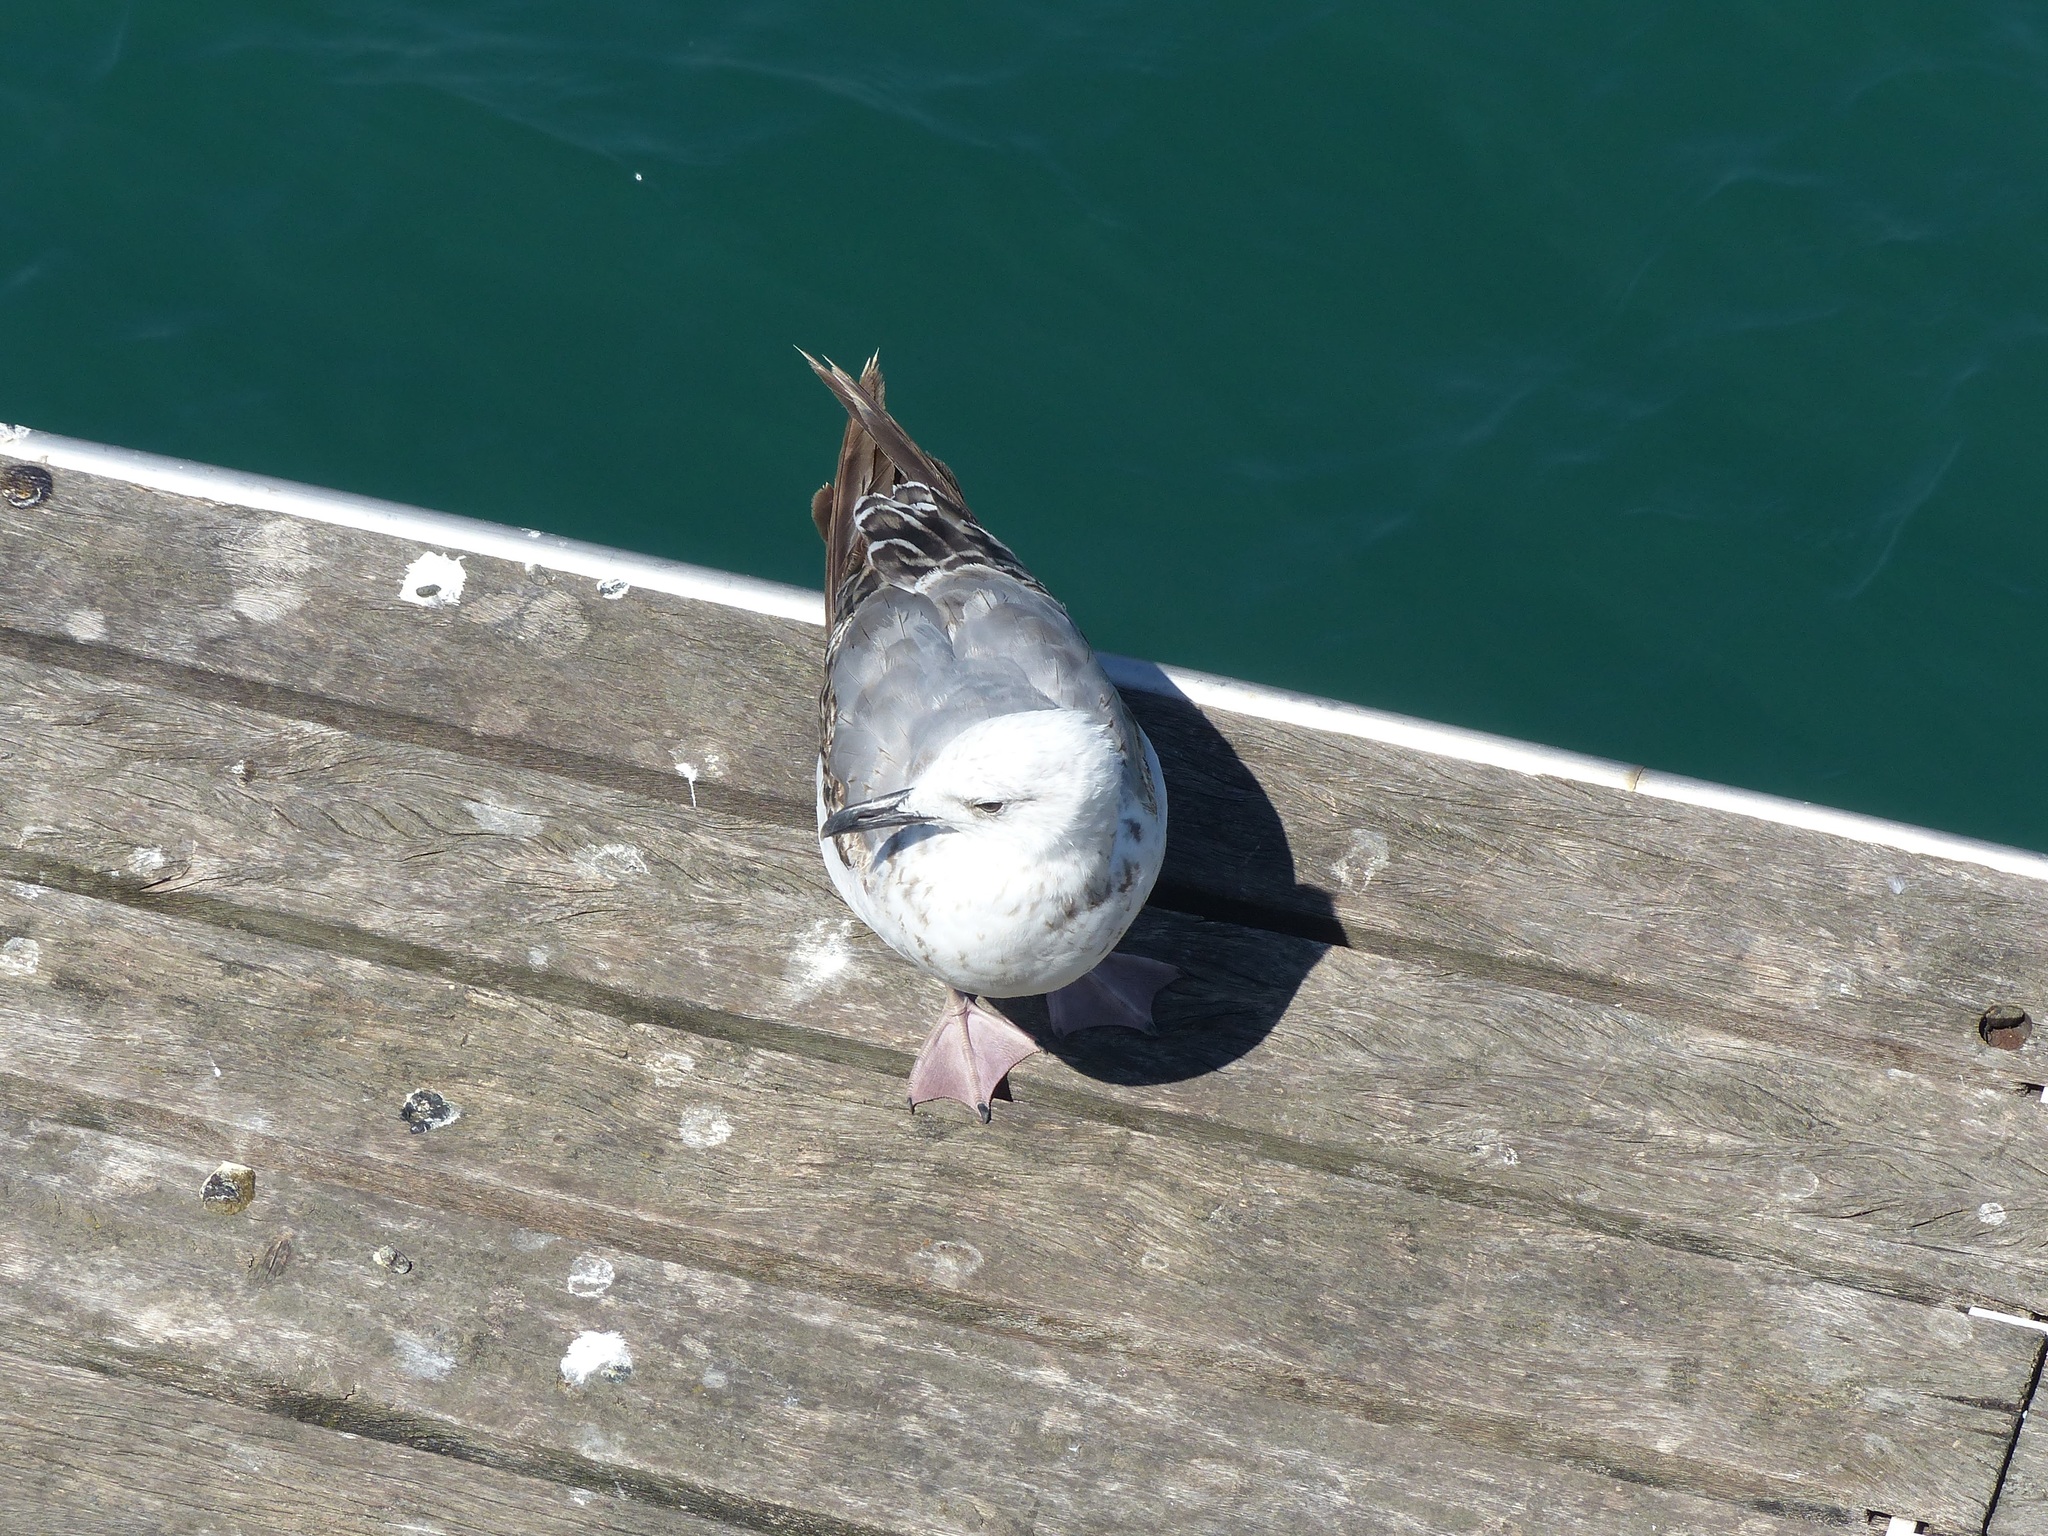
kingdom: Animalia
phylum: Chordata
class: Aves
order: Charadriiformes
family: Laridae
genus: Larus
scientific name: Larus michahellis
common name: Yellow-legged gull
